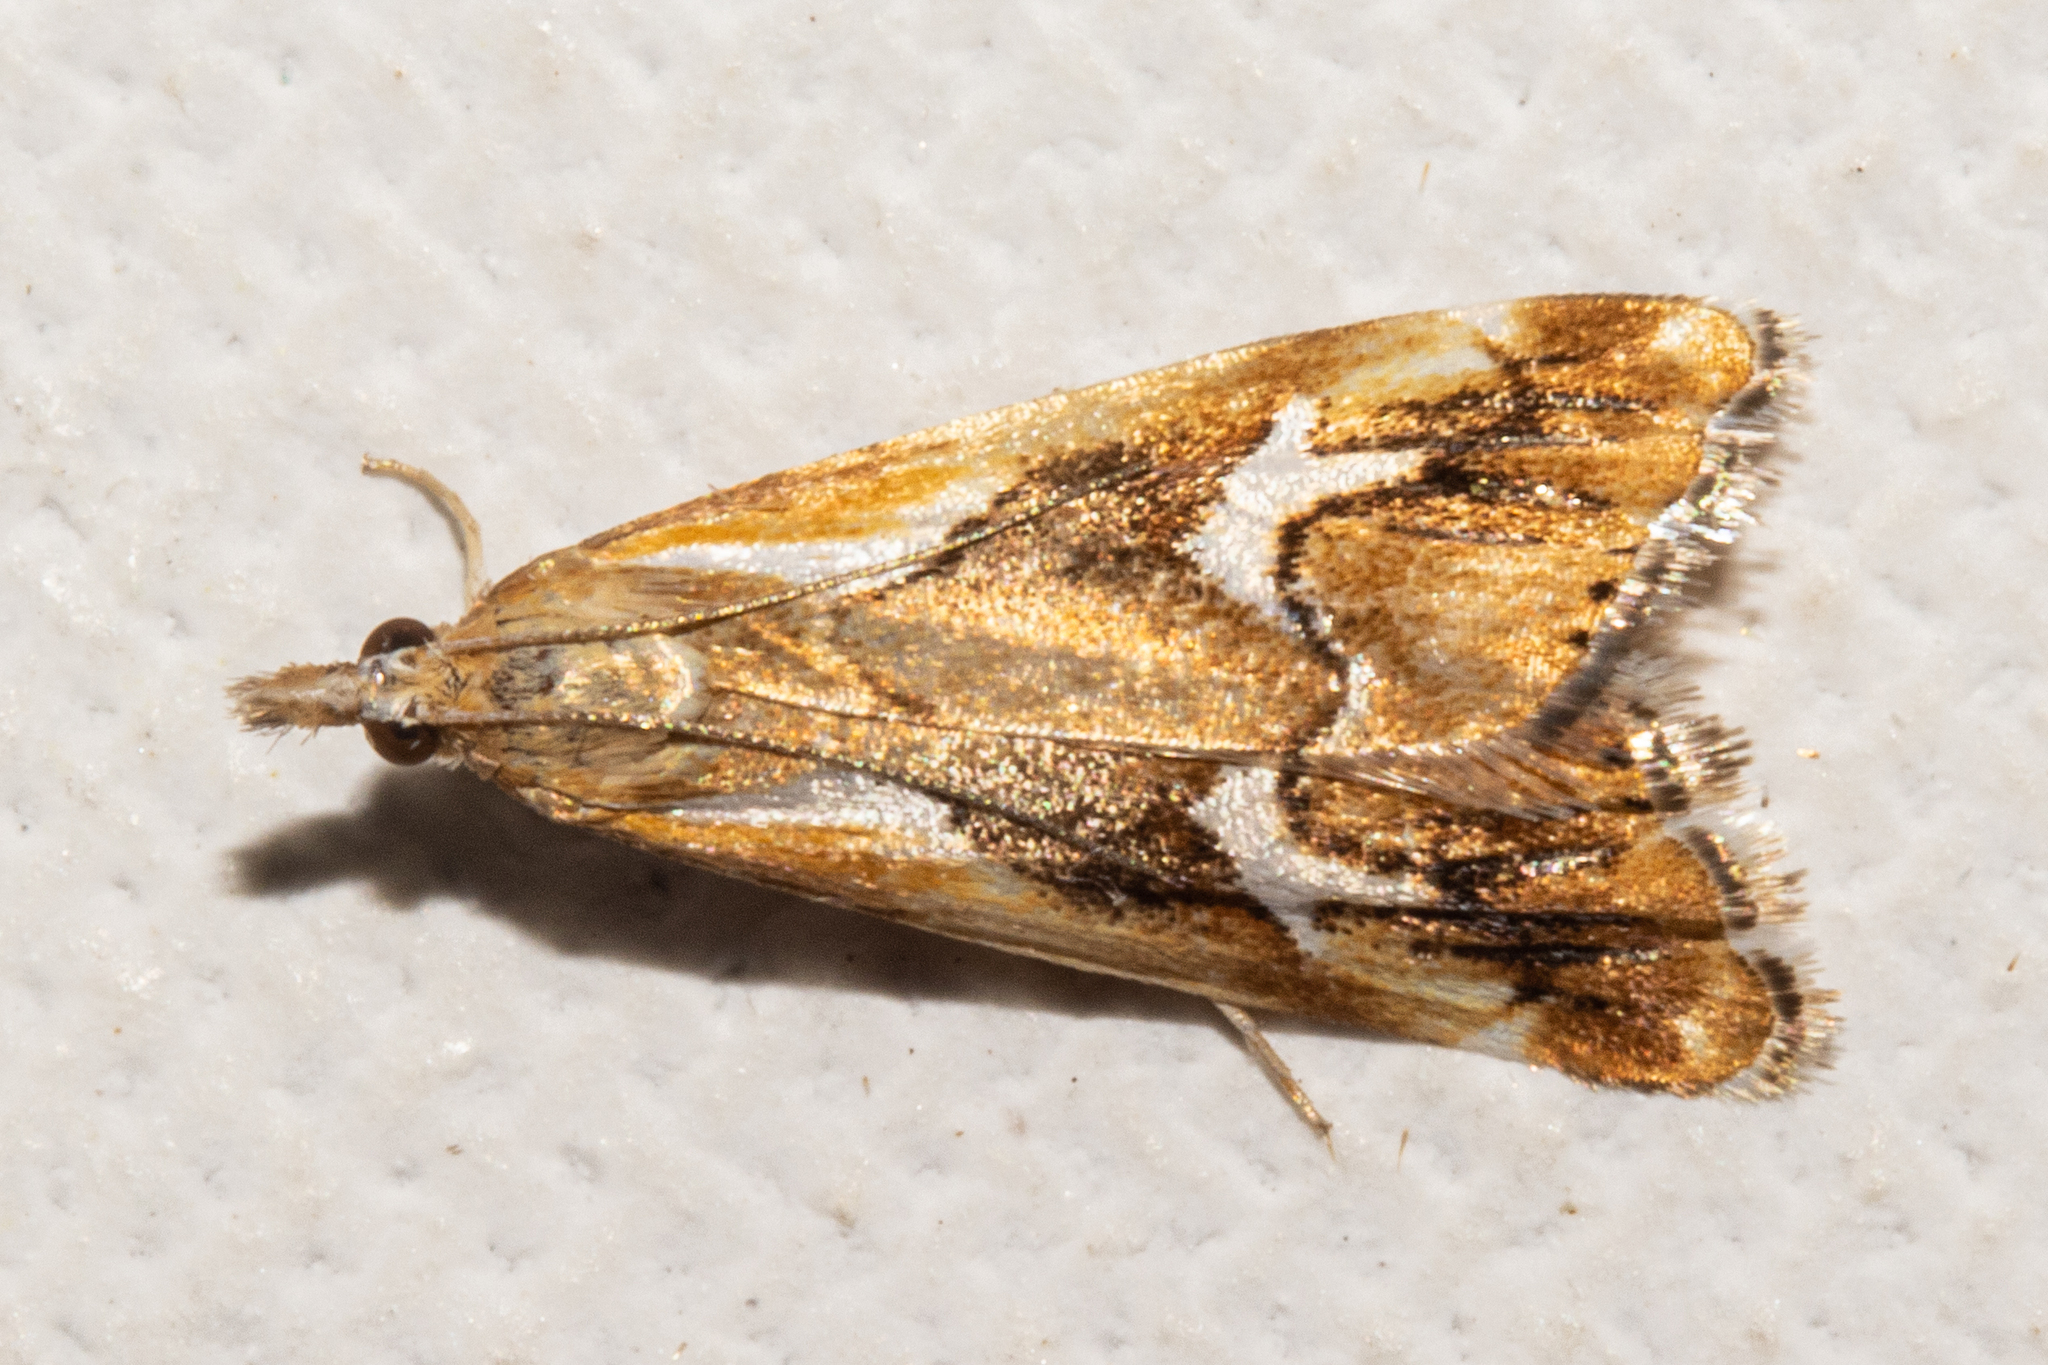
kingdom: Animalia
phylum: Arthropoda
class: Insecta
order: Lepidoptera
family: Crambidae
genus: Glaucocharis
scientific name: Glaucocharis interruptus
